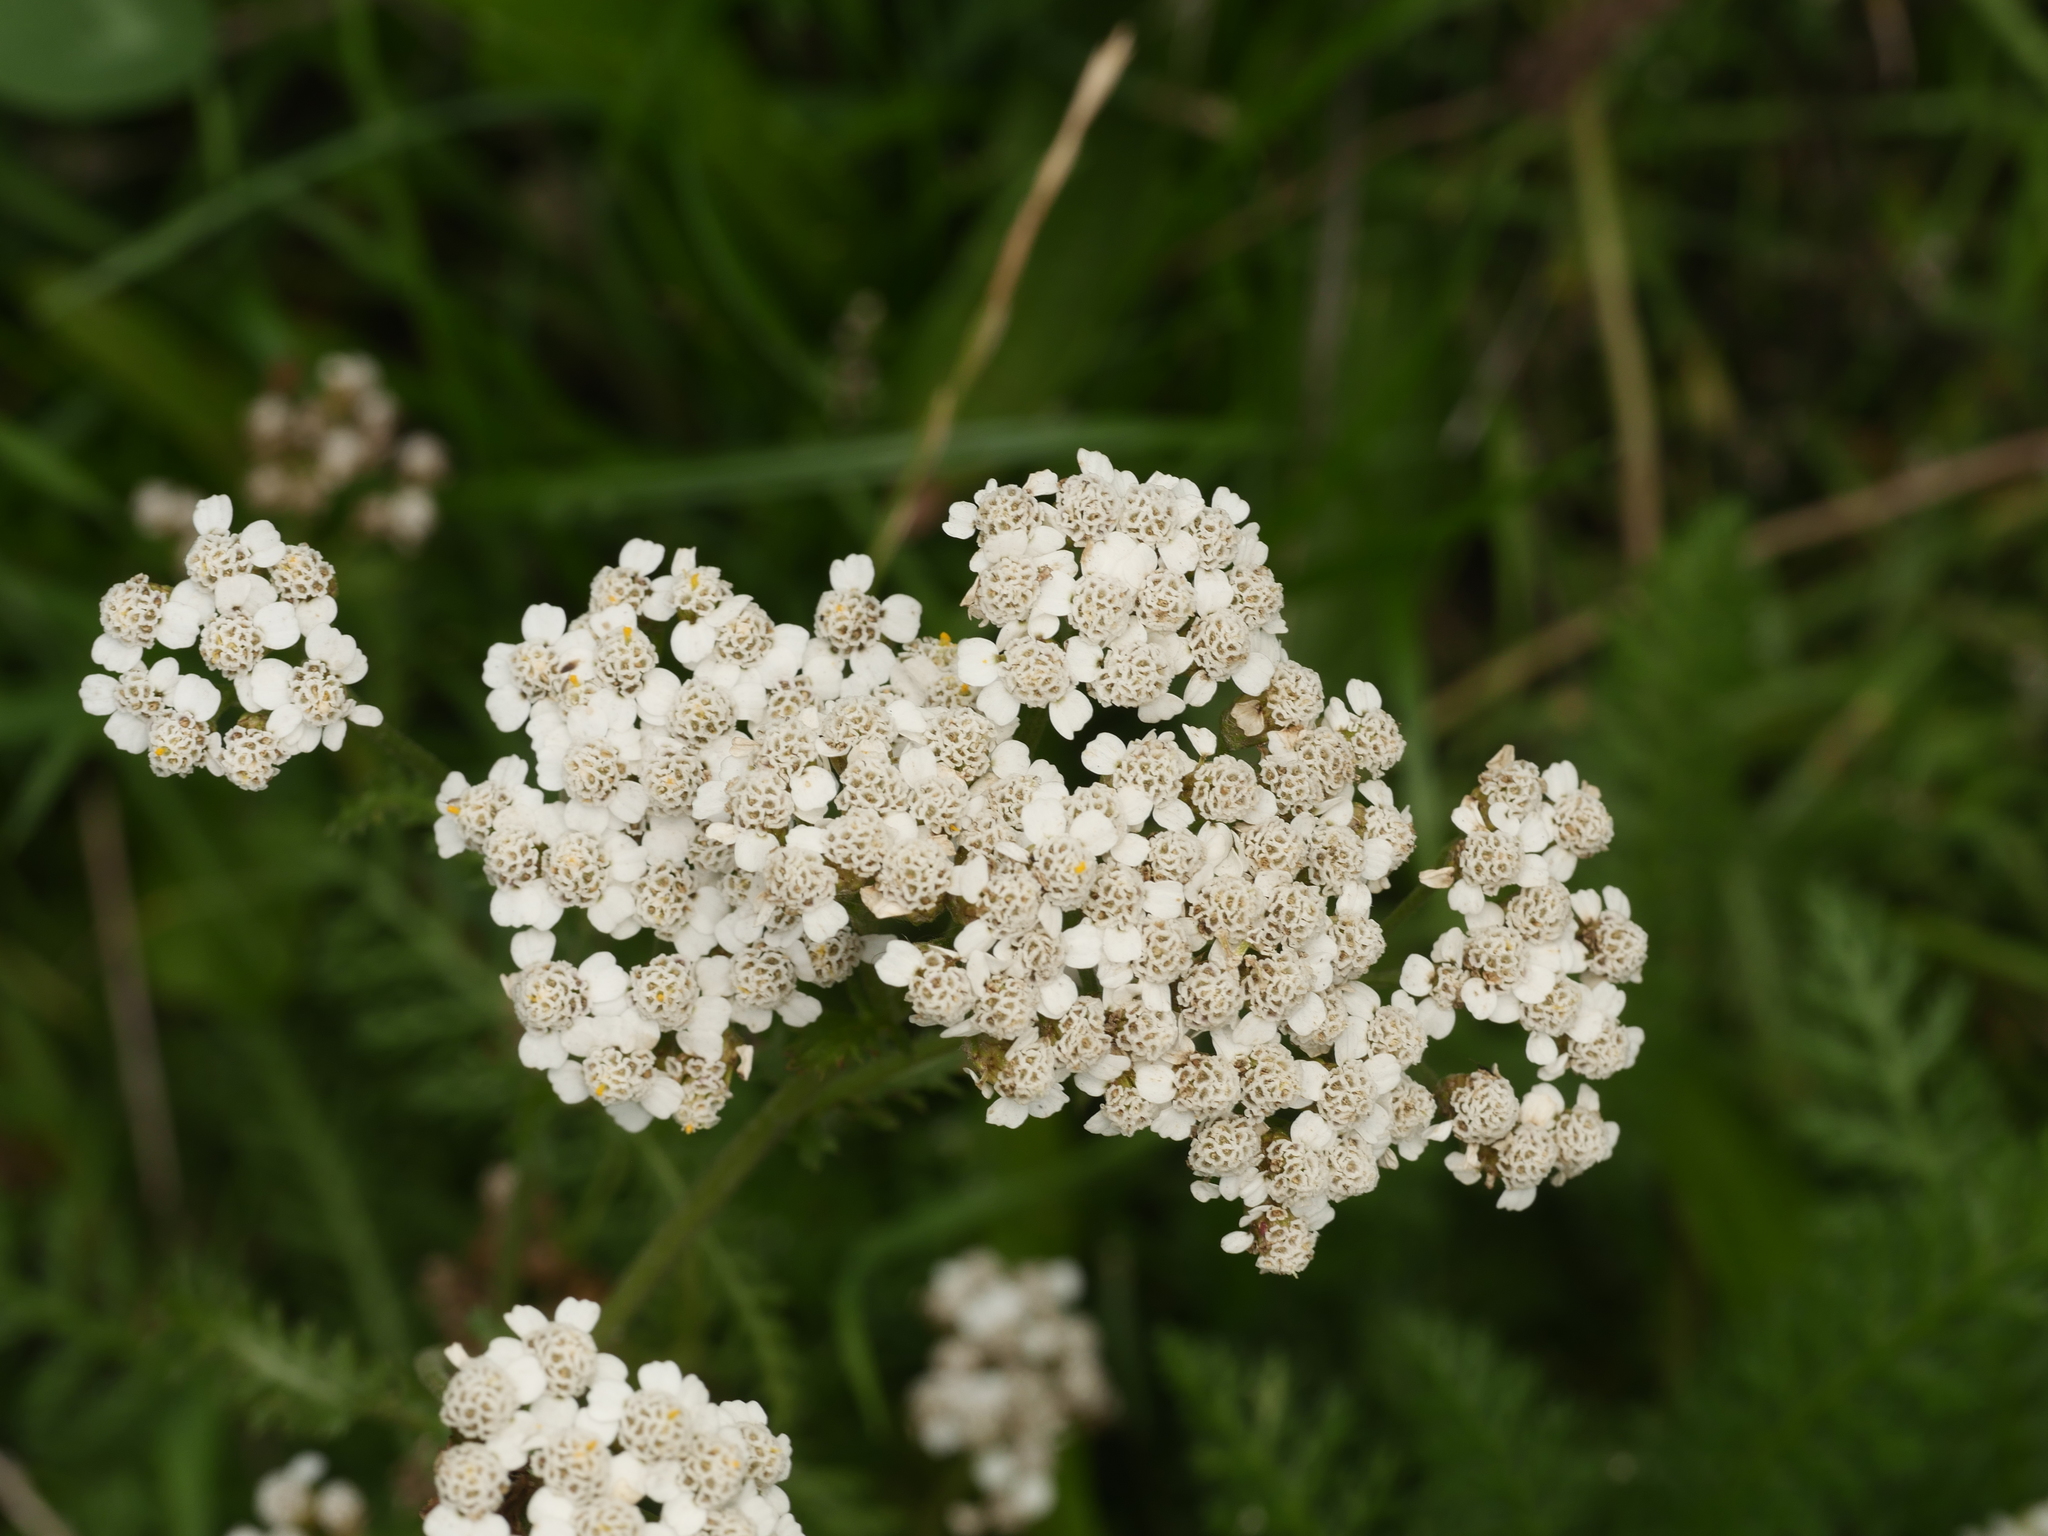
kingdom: Plantae
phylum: Tracheophyta
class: Magnoliopsida
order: Asterales
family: Asteraceae
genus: Achillea
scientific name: Achillea millefolium
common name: Yarrow
